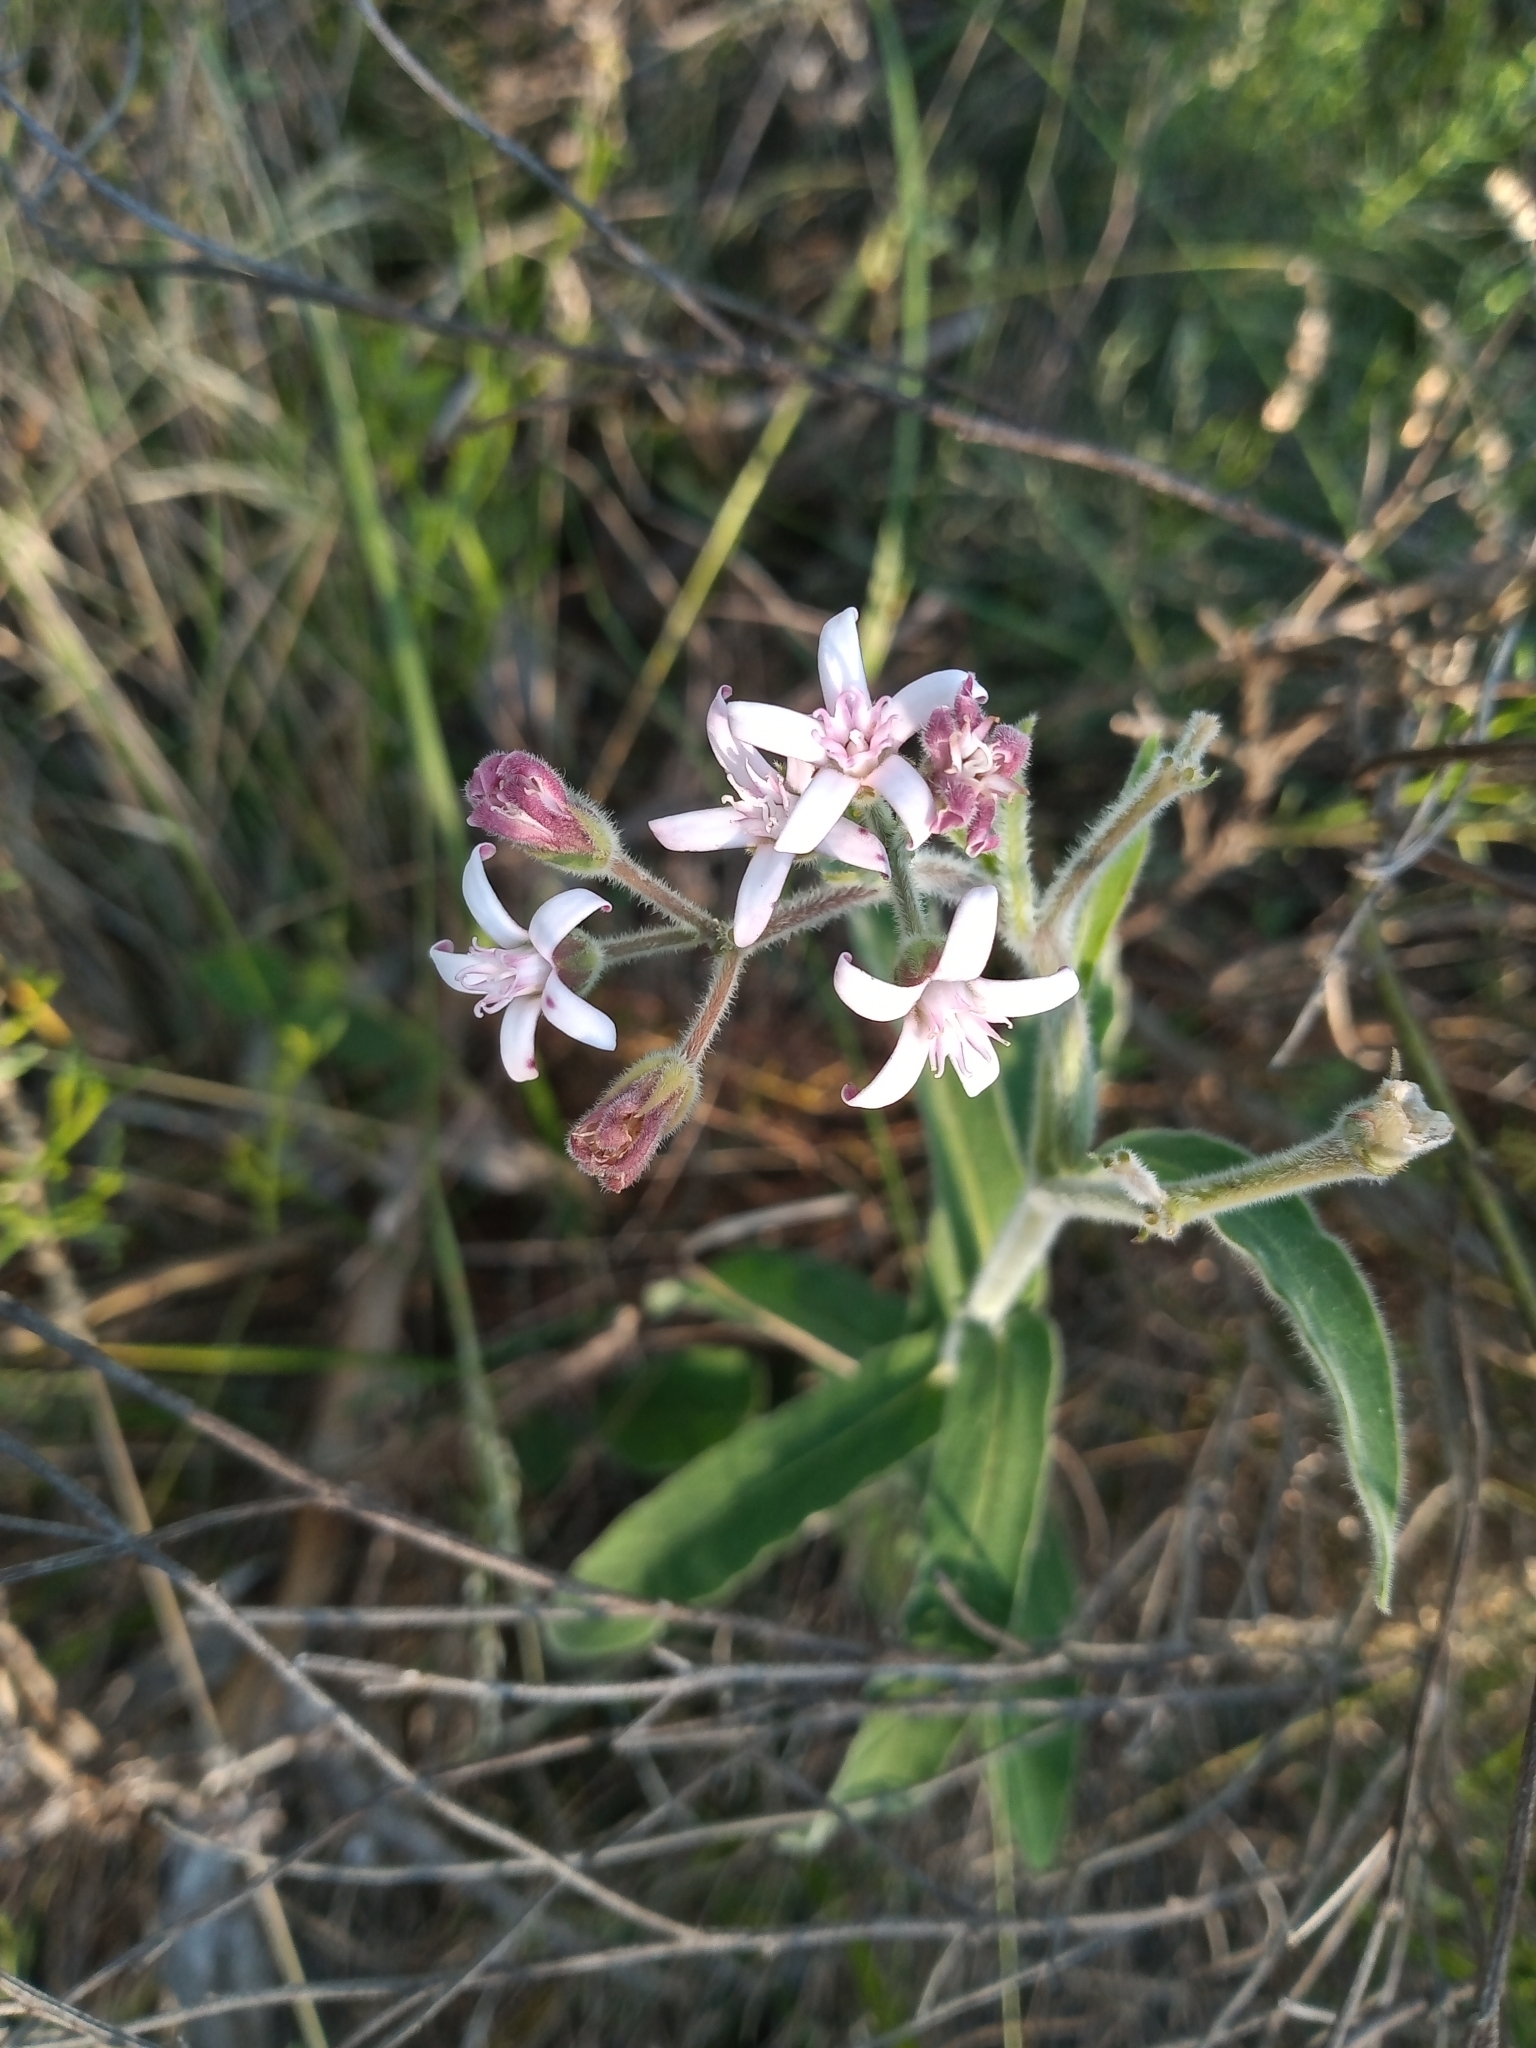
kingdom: Plantae
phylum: Tracheophyta
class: Magnoliopsida
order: Gentianales
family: Apocynaceae
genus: Oxypetalum
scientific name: Oxypetalum solanoides
